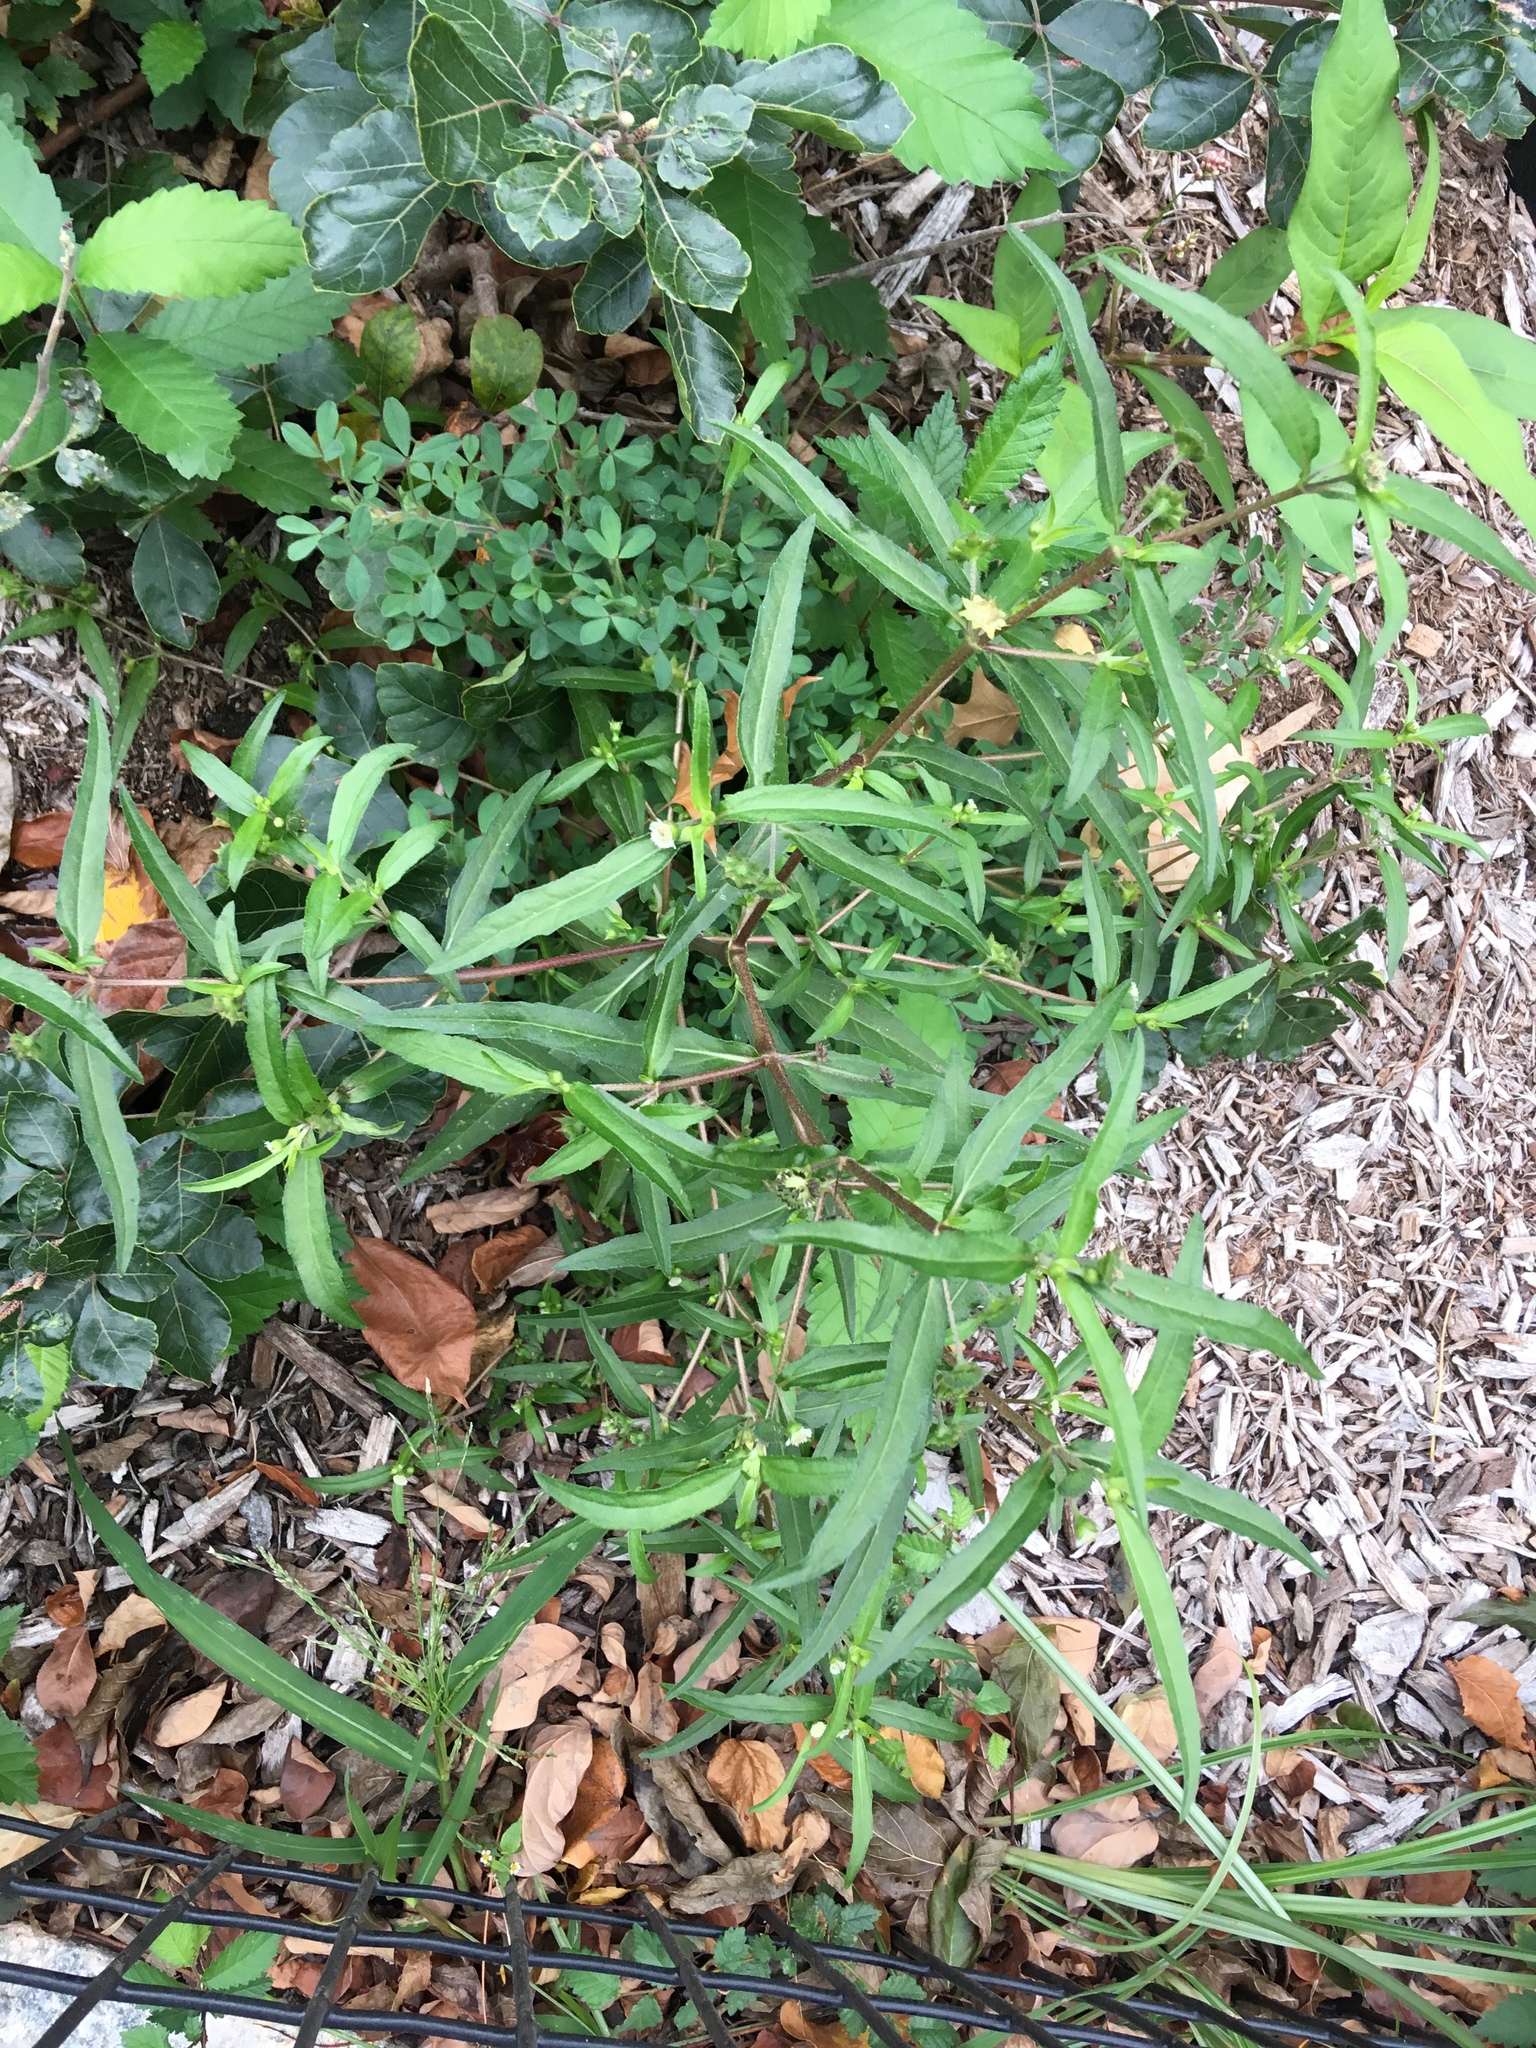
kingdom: Plantae
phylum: Tracheophyta
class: Magnoliopsida
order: Asterales
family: Asteraceae
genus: Eclipta
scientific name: Eclipta prostrata
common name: False daisy
